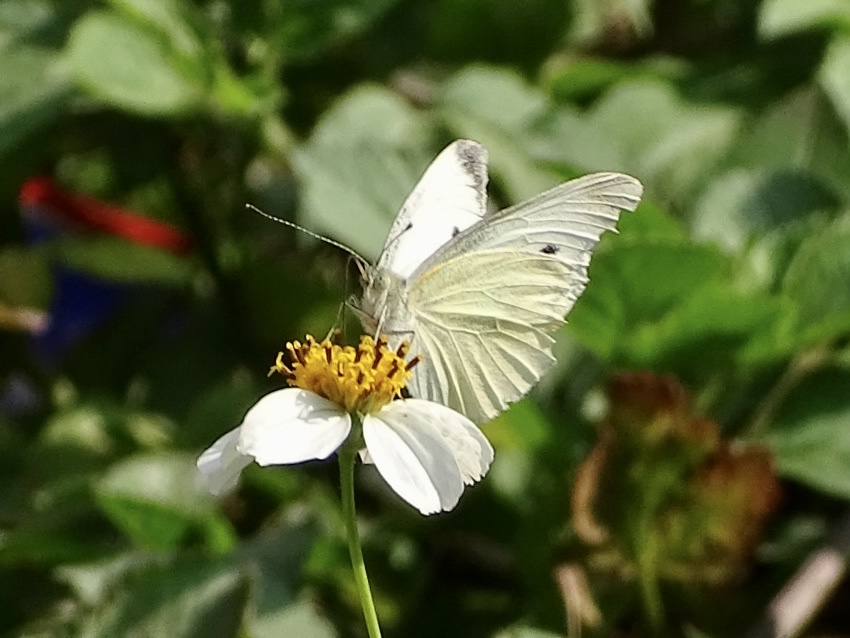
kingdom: Animalia
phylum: Arthropoda
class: Insecta
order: Lepidoptera
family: Pieridae
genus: Pieris
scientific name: Pieris rapae
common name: Small white
